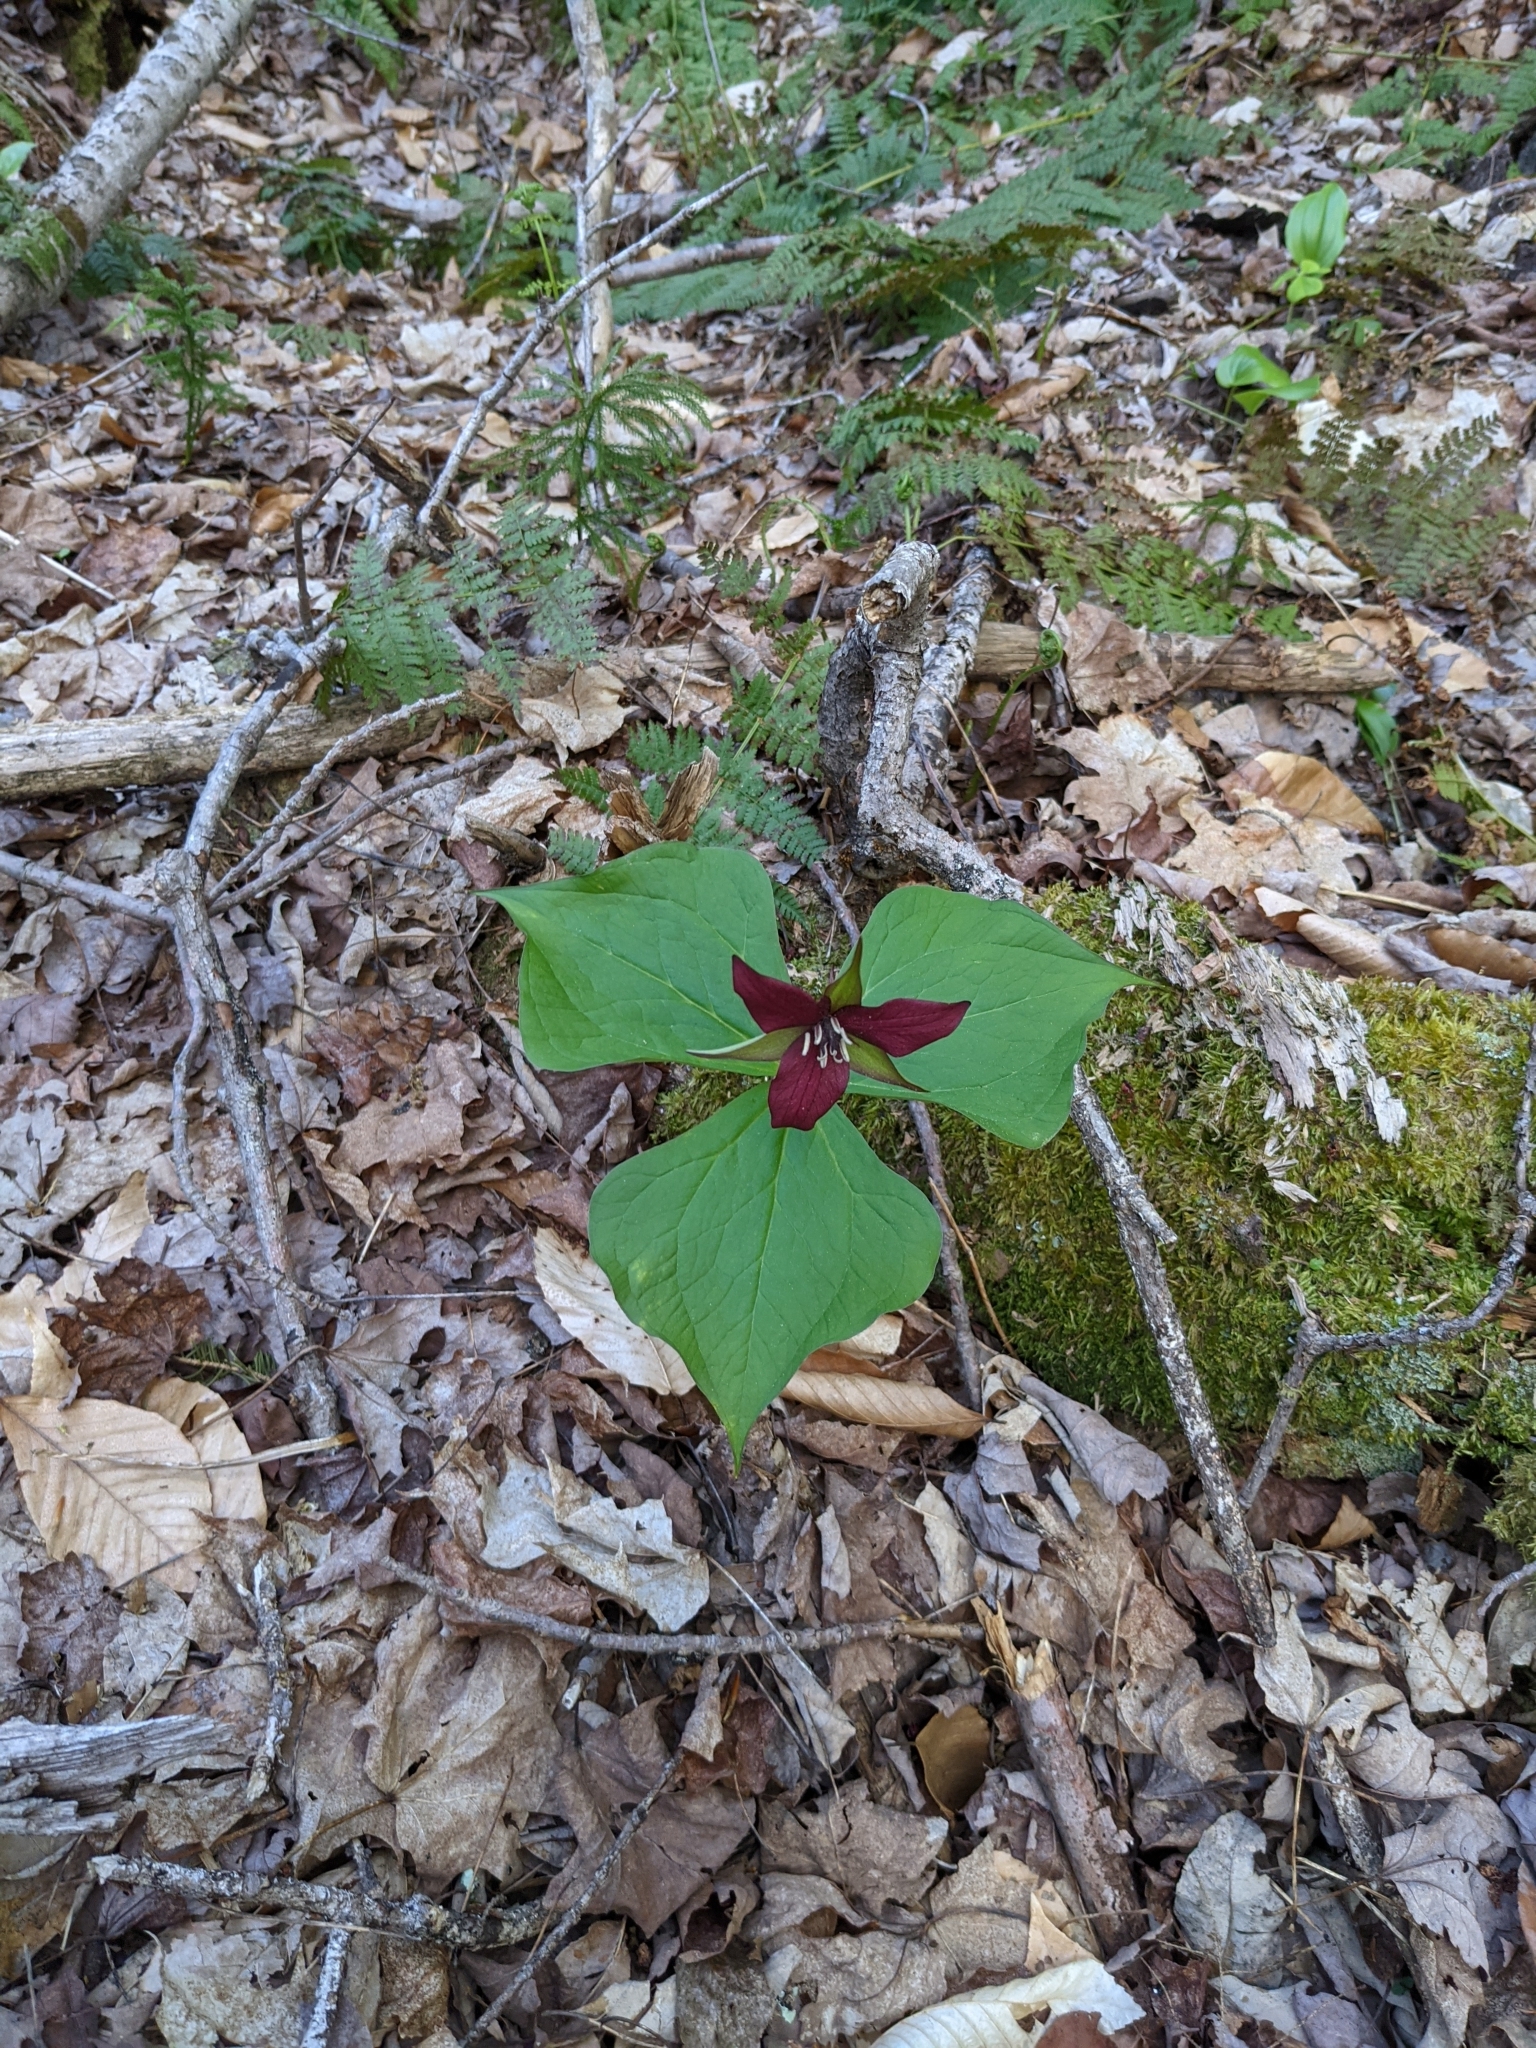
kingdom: Plantae
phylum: Tracheophyta
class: Liliopsida
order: Liliales
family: Melanthiaceae
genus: Trillium
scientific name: Trillium erectum
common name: Purple trillium
